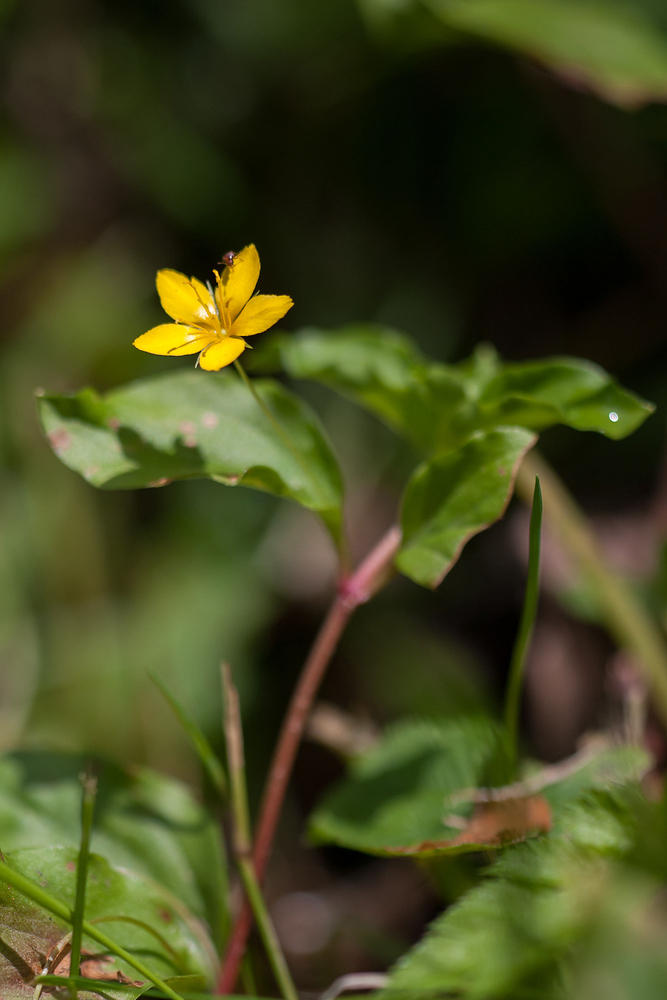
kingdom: Plantae
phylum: Tracheophyta
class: Magnoliopsida
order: Ericales
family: Primulaceae
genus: Lysimachia
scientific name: Lysimachia nemorum
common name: Yellow pimpernel
